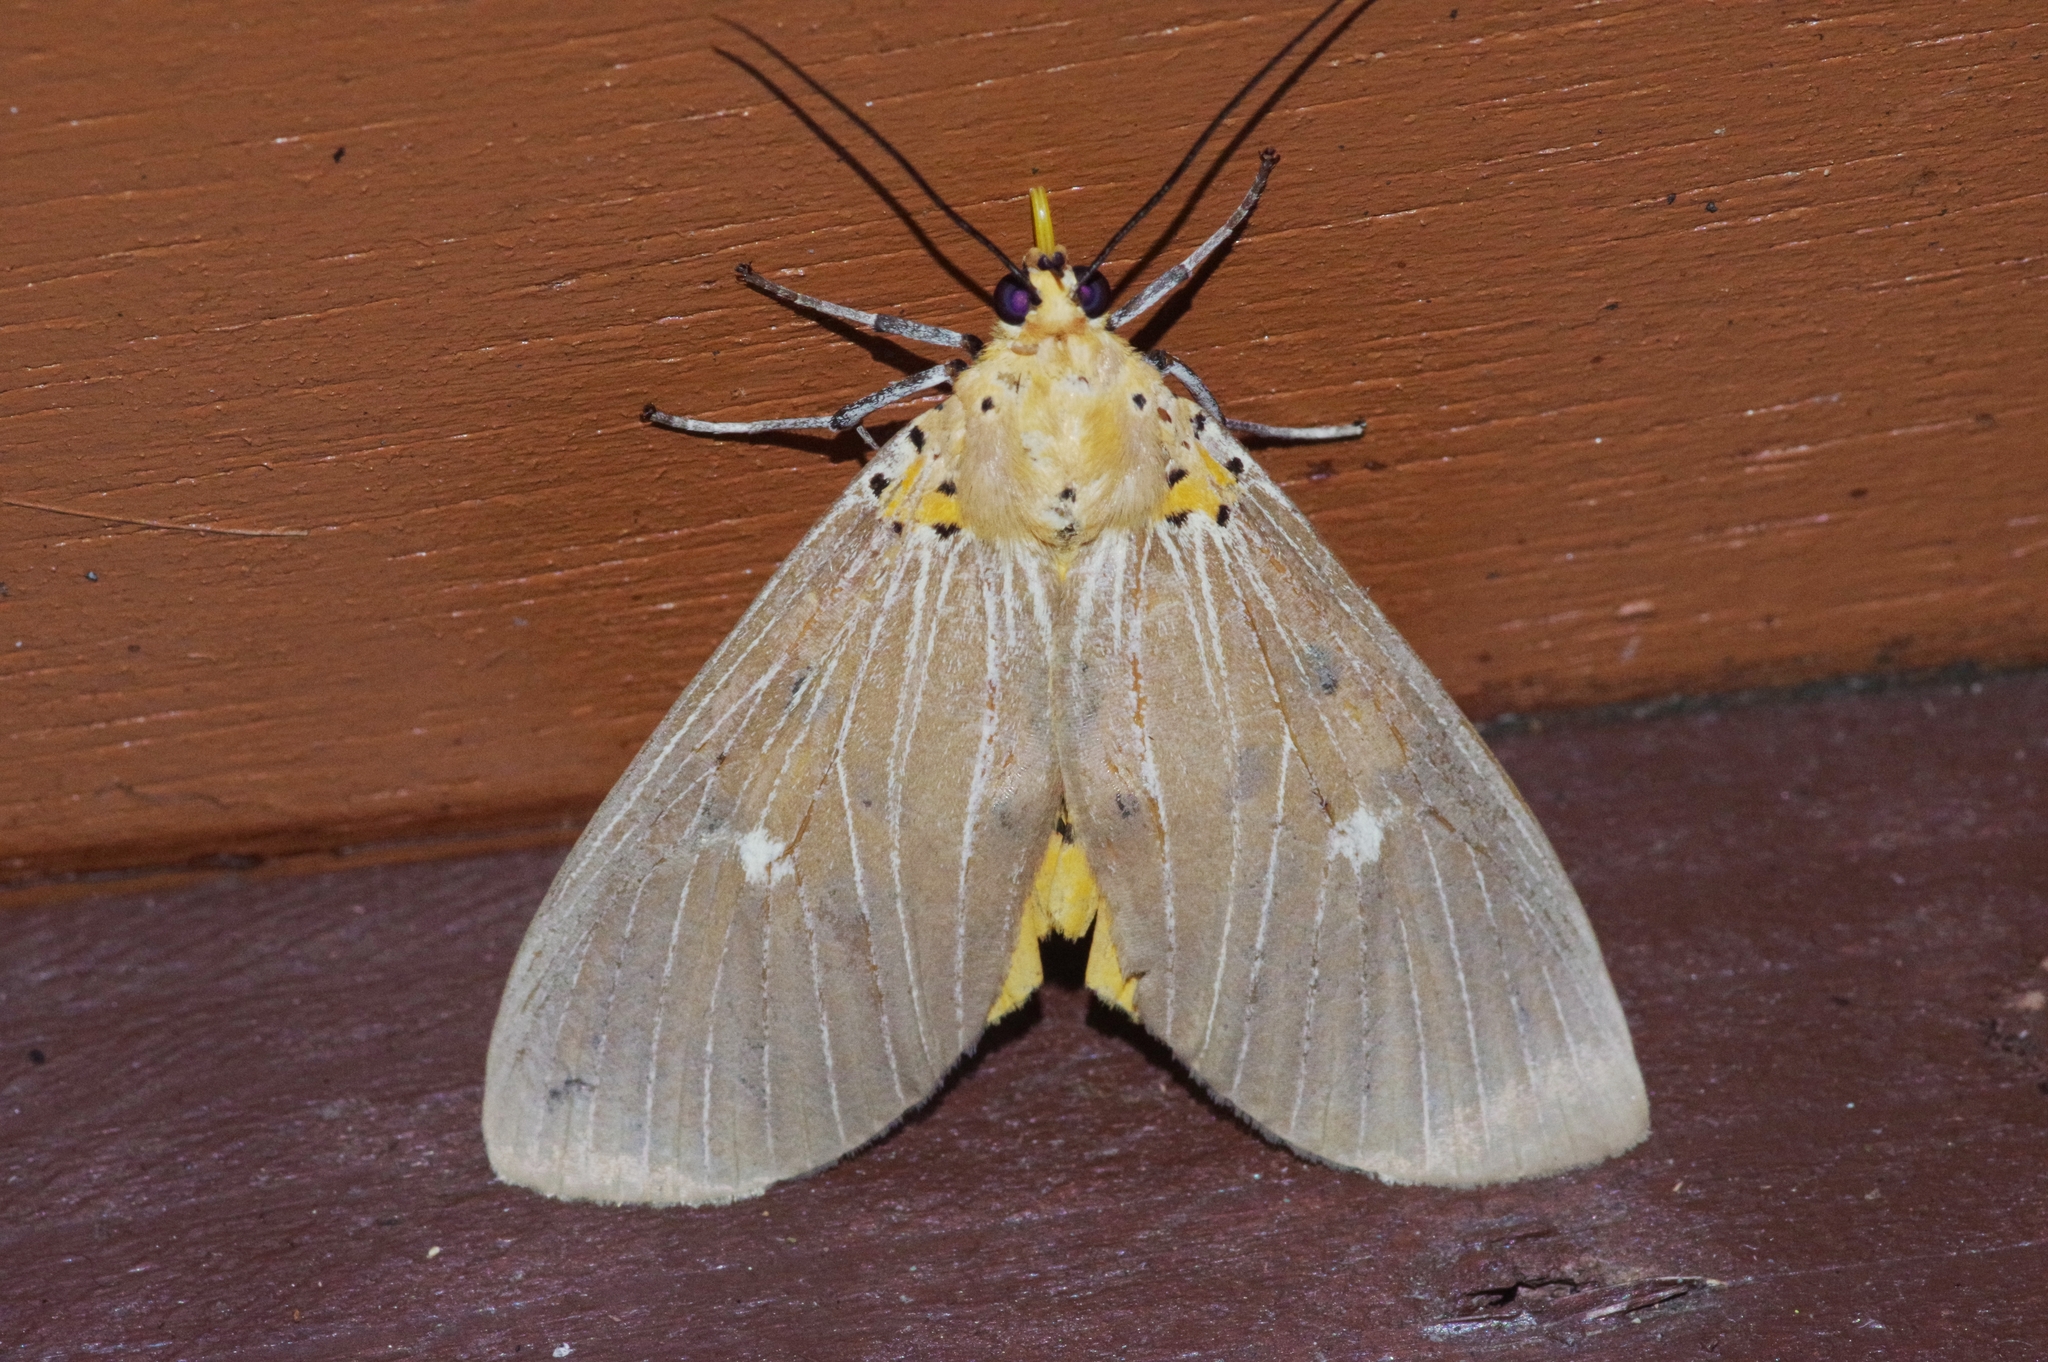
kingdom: Animalia
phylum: Arthropoda
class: Insecta
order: Lepidoptera
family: Erebidae
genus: Asota
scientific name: Asota caricae
